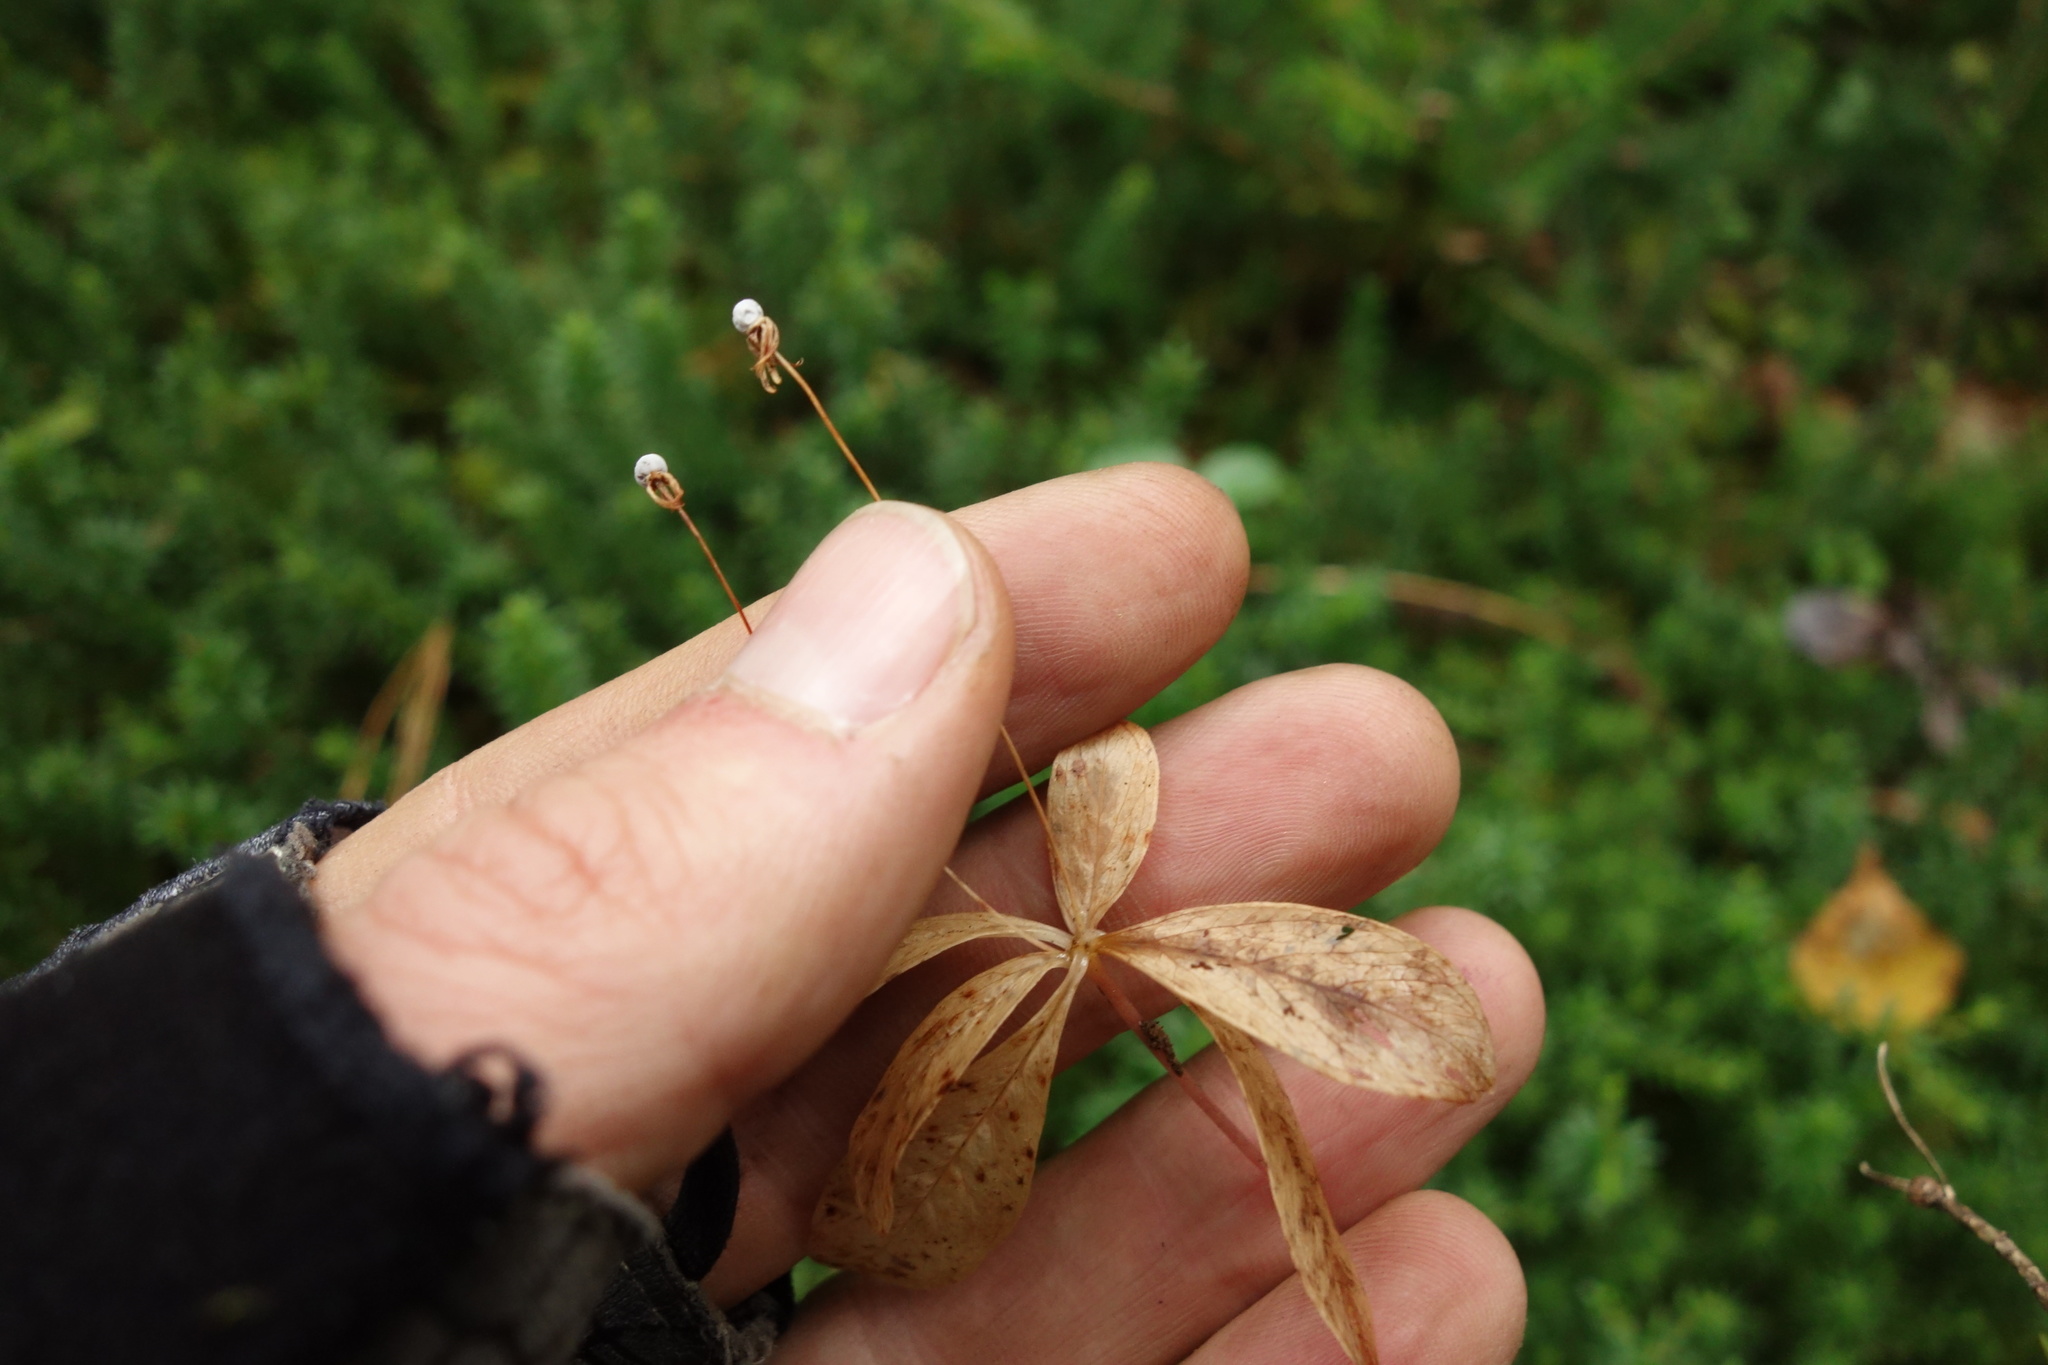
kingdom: Plantae
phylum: Tracheophyta
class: Magnoliopsida
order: Ericales
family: Primulaceae
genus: Lysimachia
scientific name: Lysimachia europaea
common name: Arctic starflower
